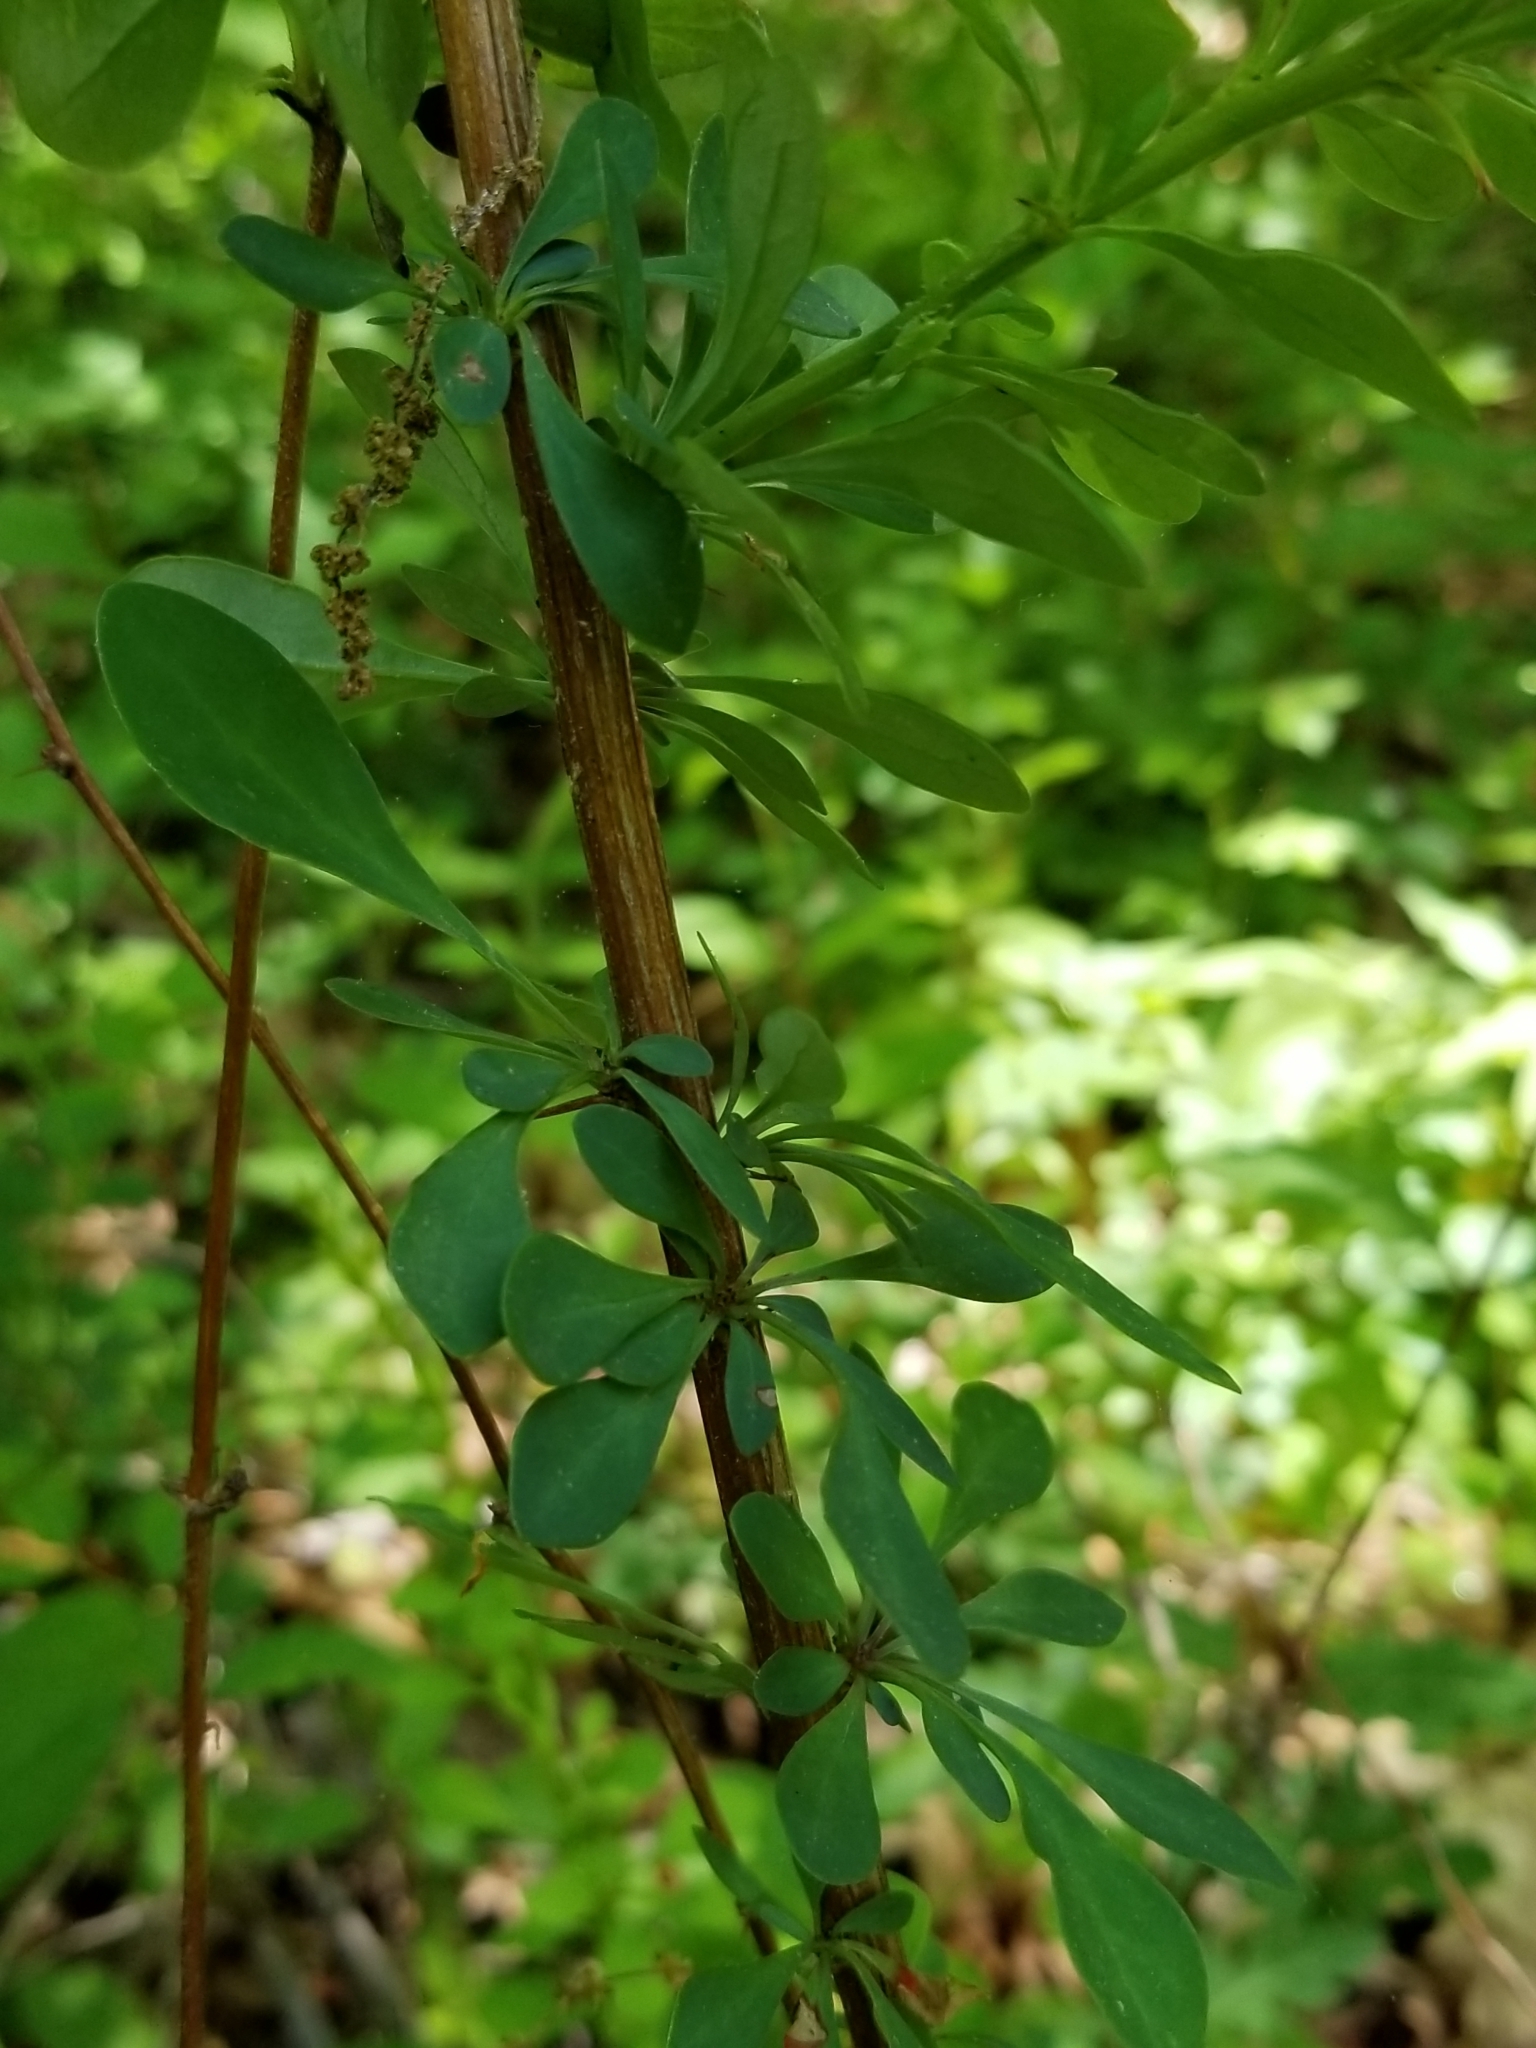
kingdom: Plantae
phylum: Tracheophyta
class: Magnoliopsida
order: Ranunculales
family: Berberidaceae
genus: Berberis
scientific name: Berberis thunbergii
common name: Japanese barberry
